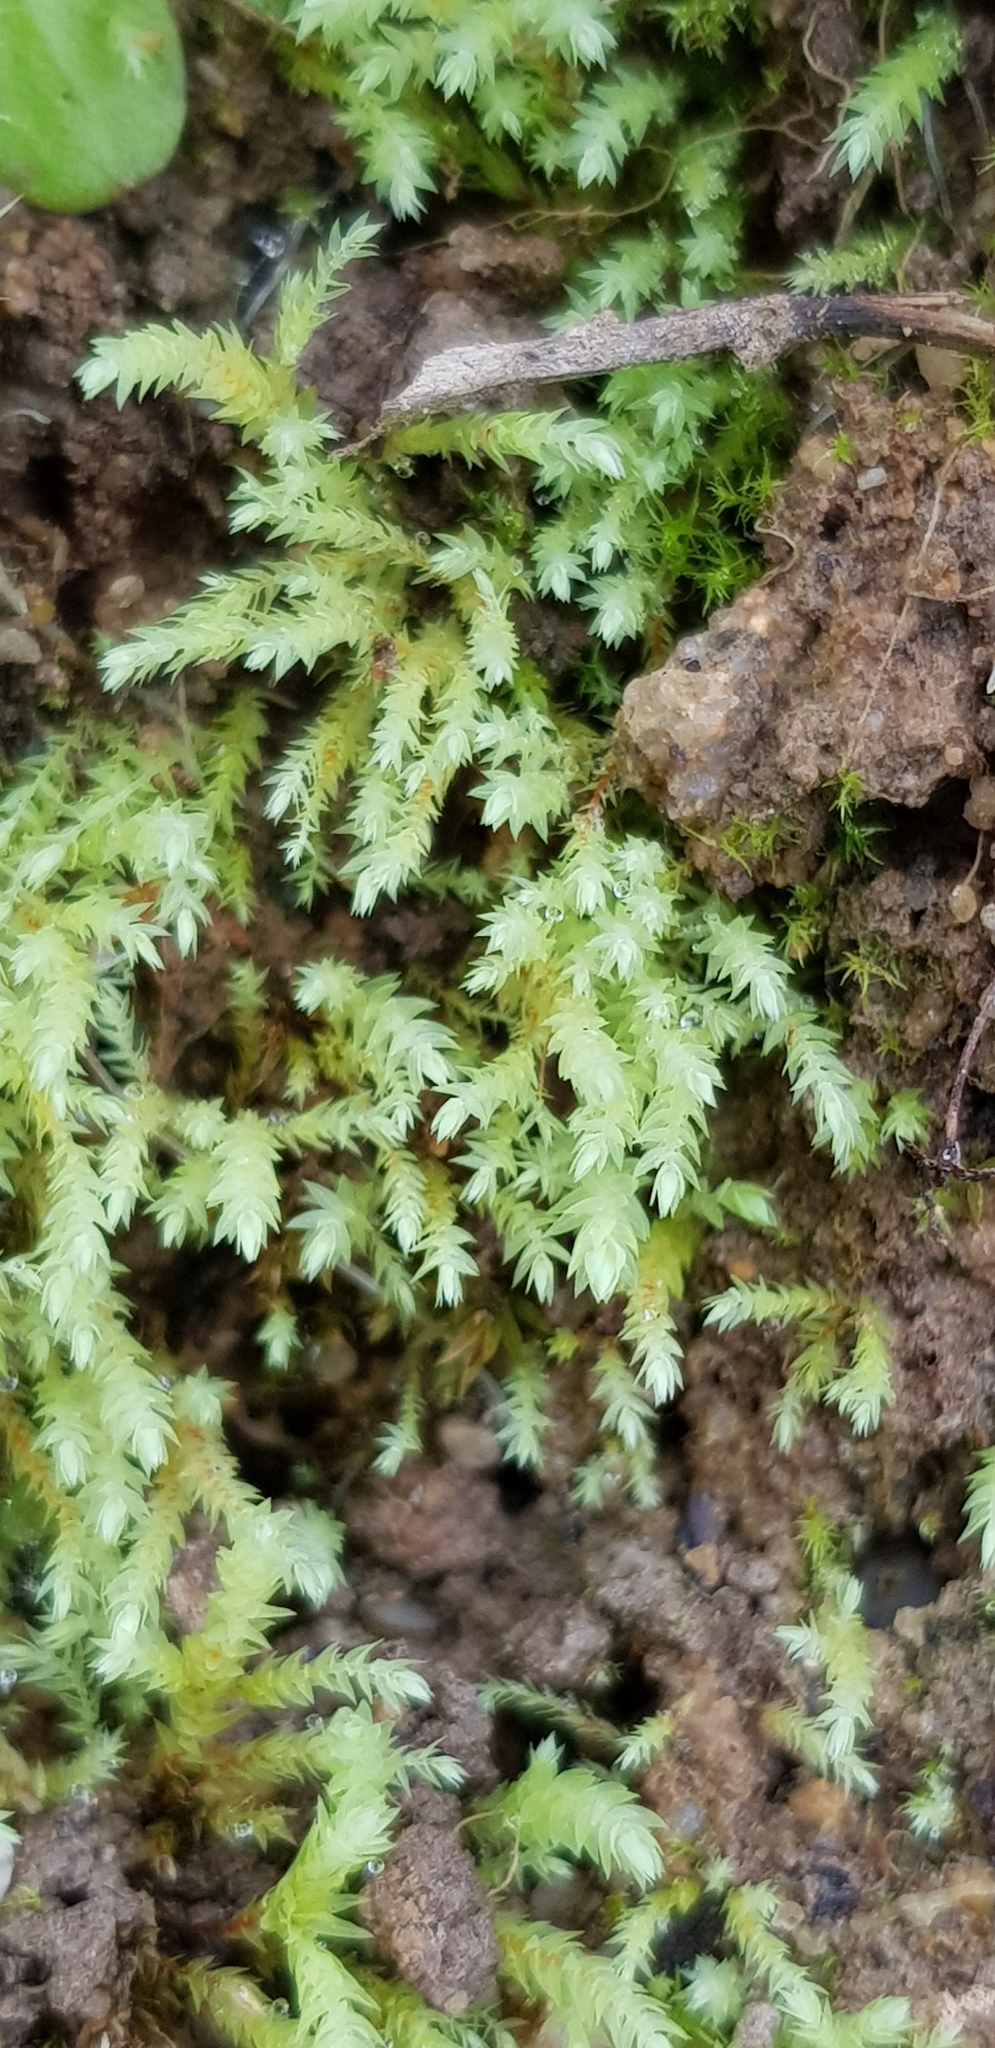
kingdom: Plantae
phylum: Bryophyta
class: Bryopsida
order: Bryales
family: Mniaceae
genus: Pohlia
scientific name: Pohlia wahlenbergii
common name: Wahlenberg's nodding moss
